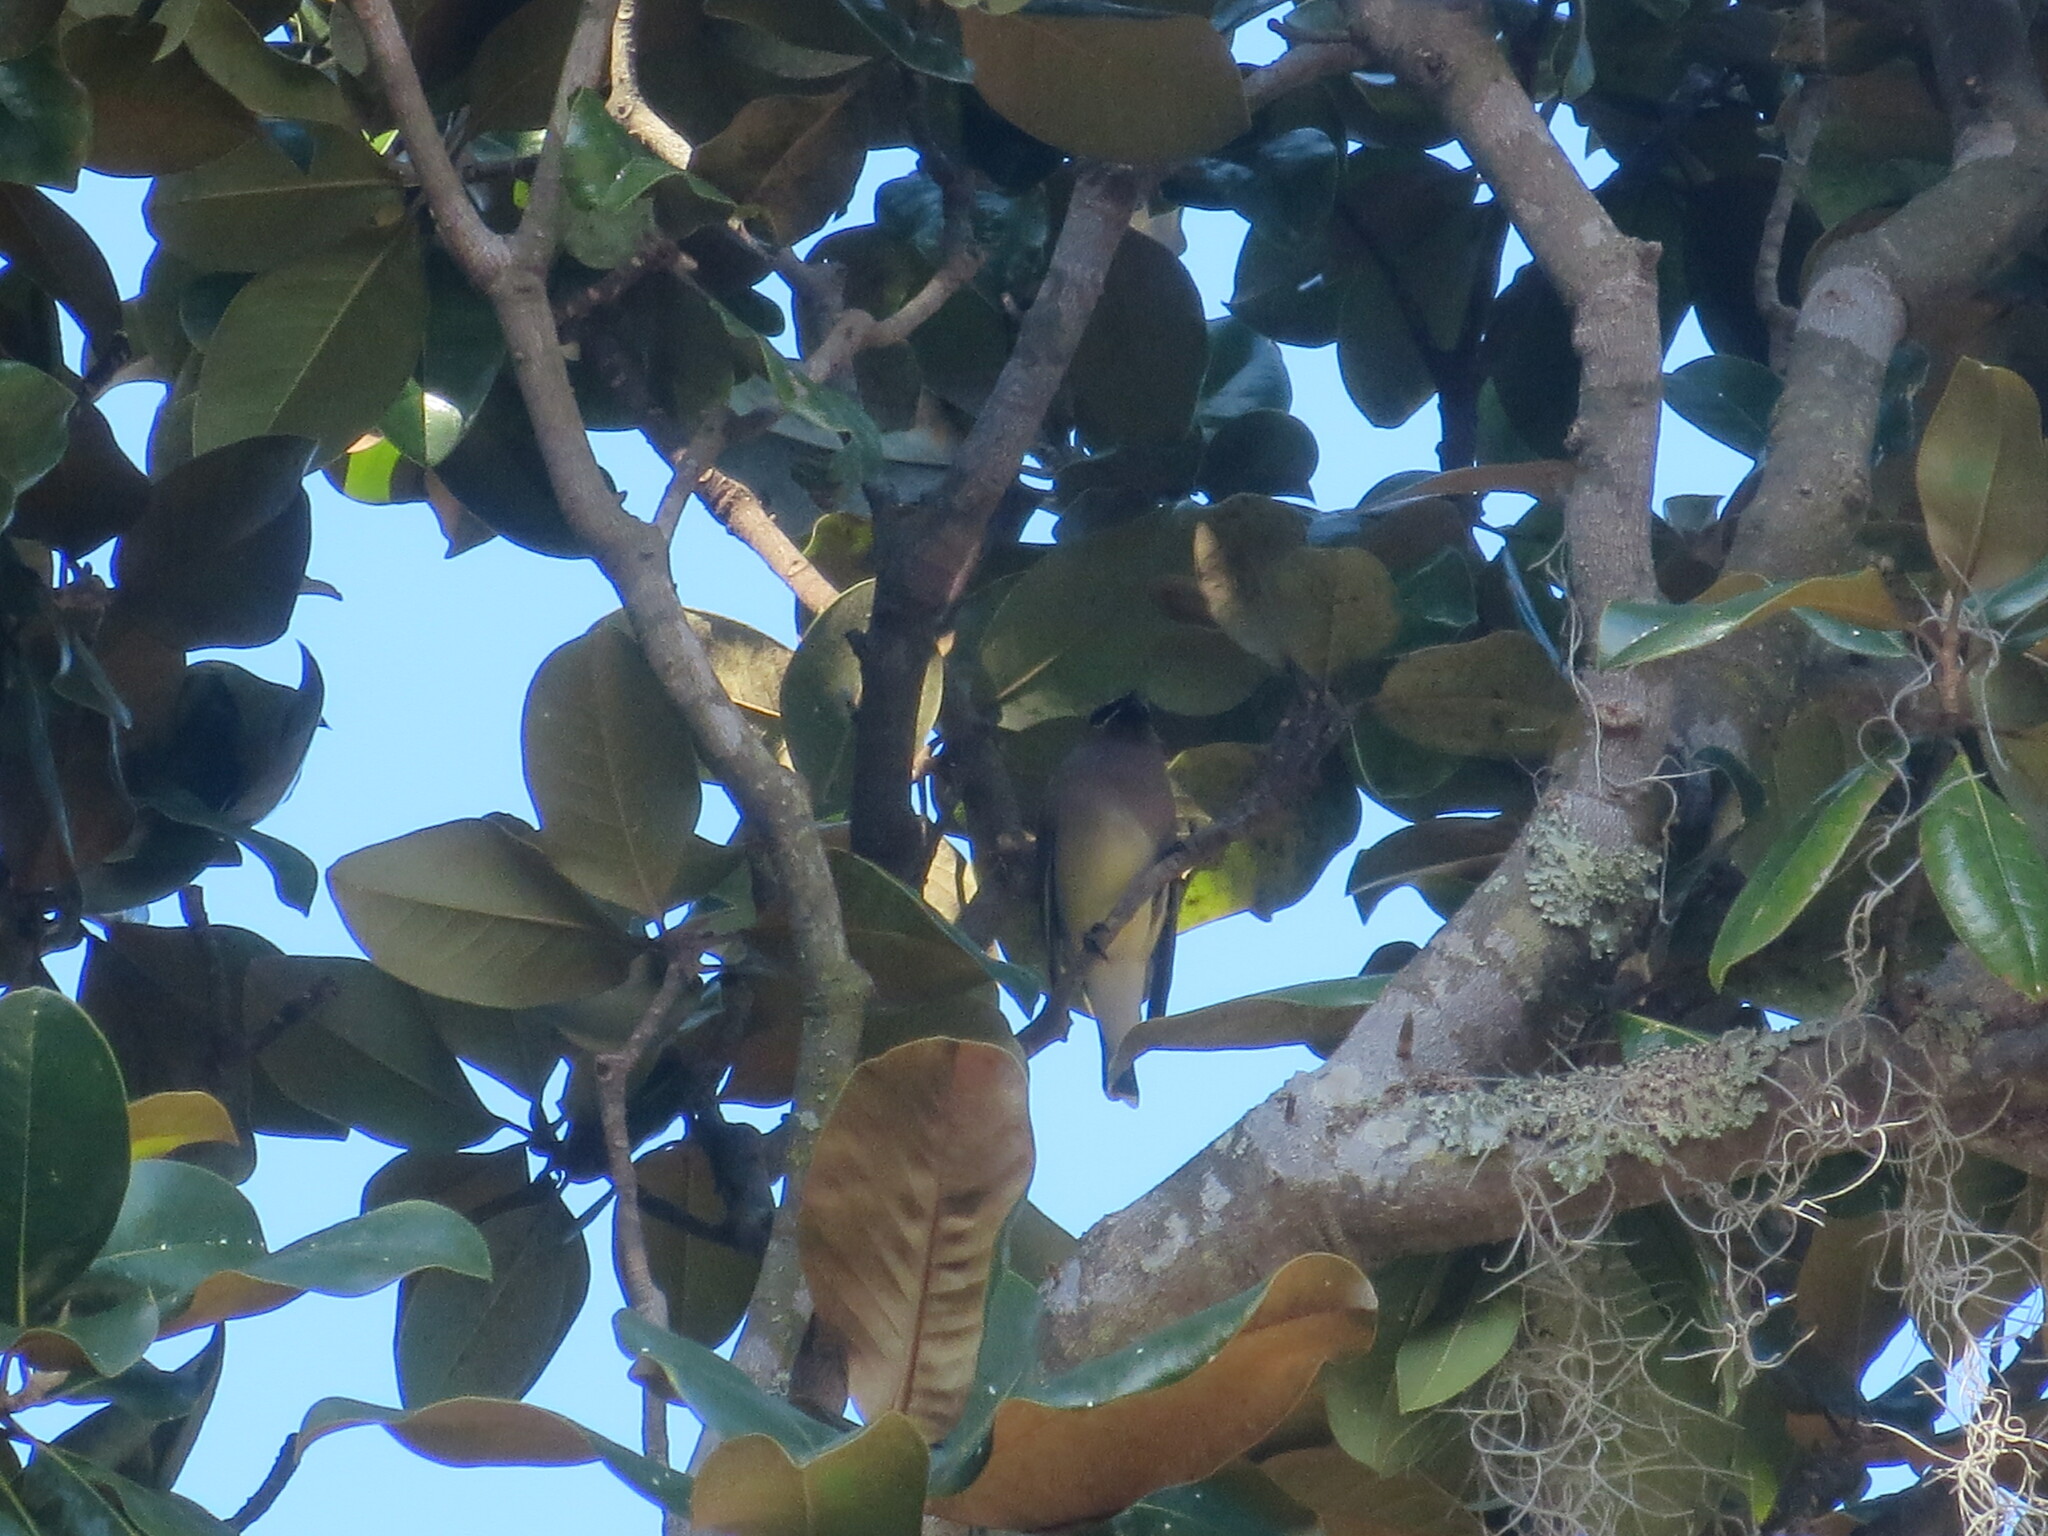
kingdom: Animalia
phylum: Chordata
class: Aves
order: Passeriformes
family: Bombycillidae
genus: Bombycilla
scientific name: Bombycilla cedrorum
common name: Cedar waxwing
